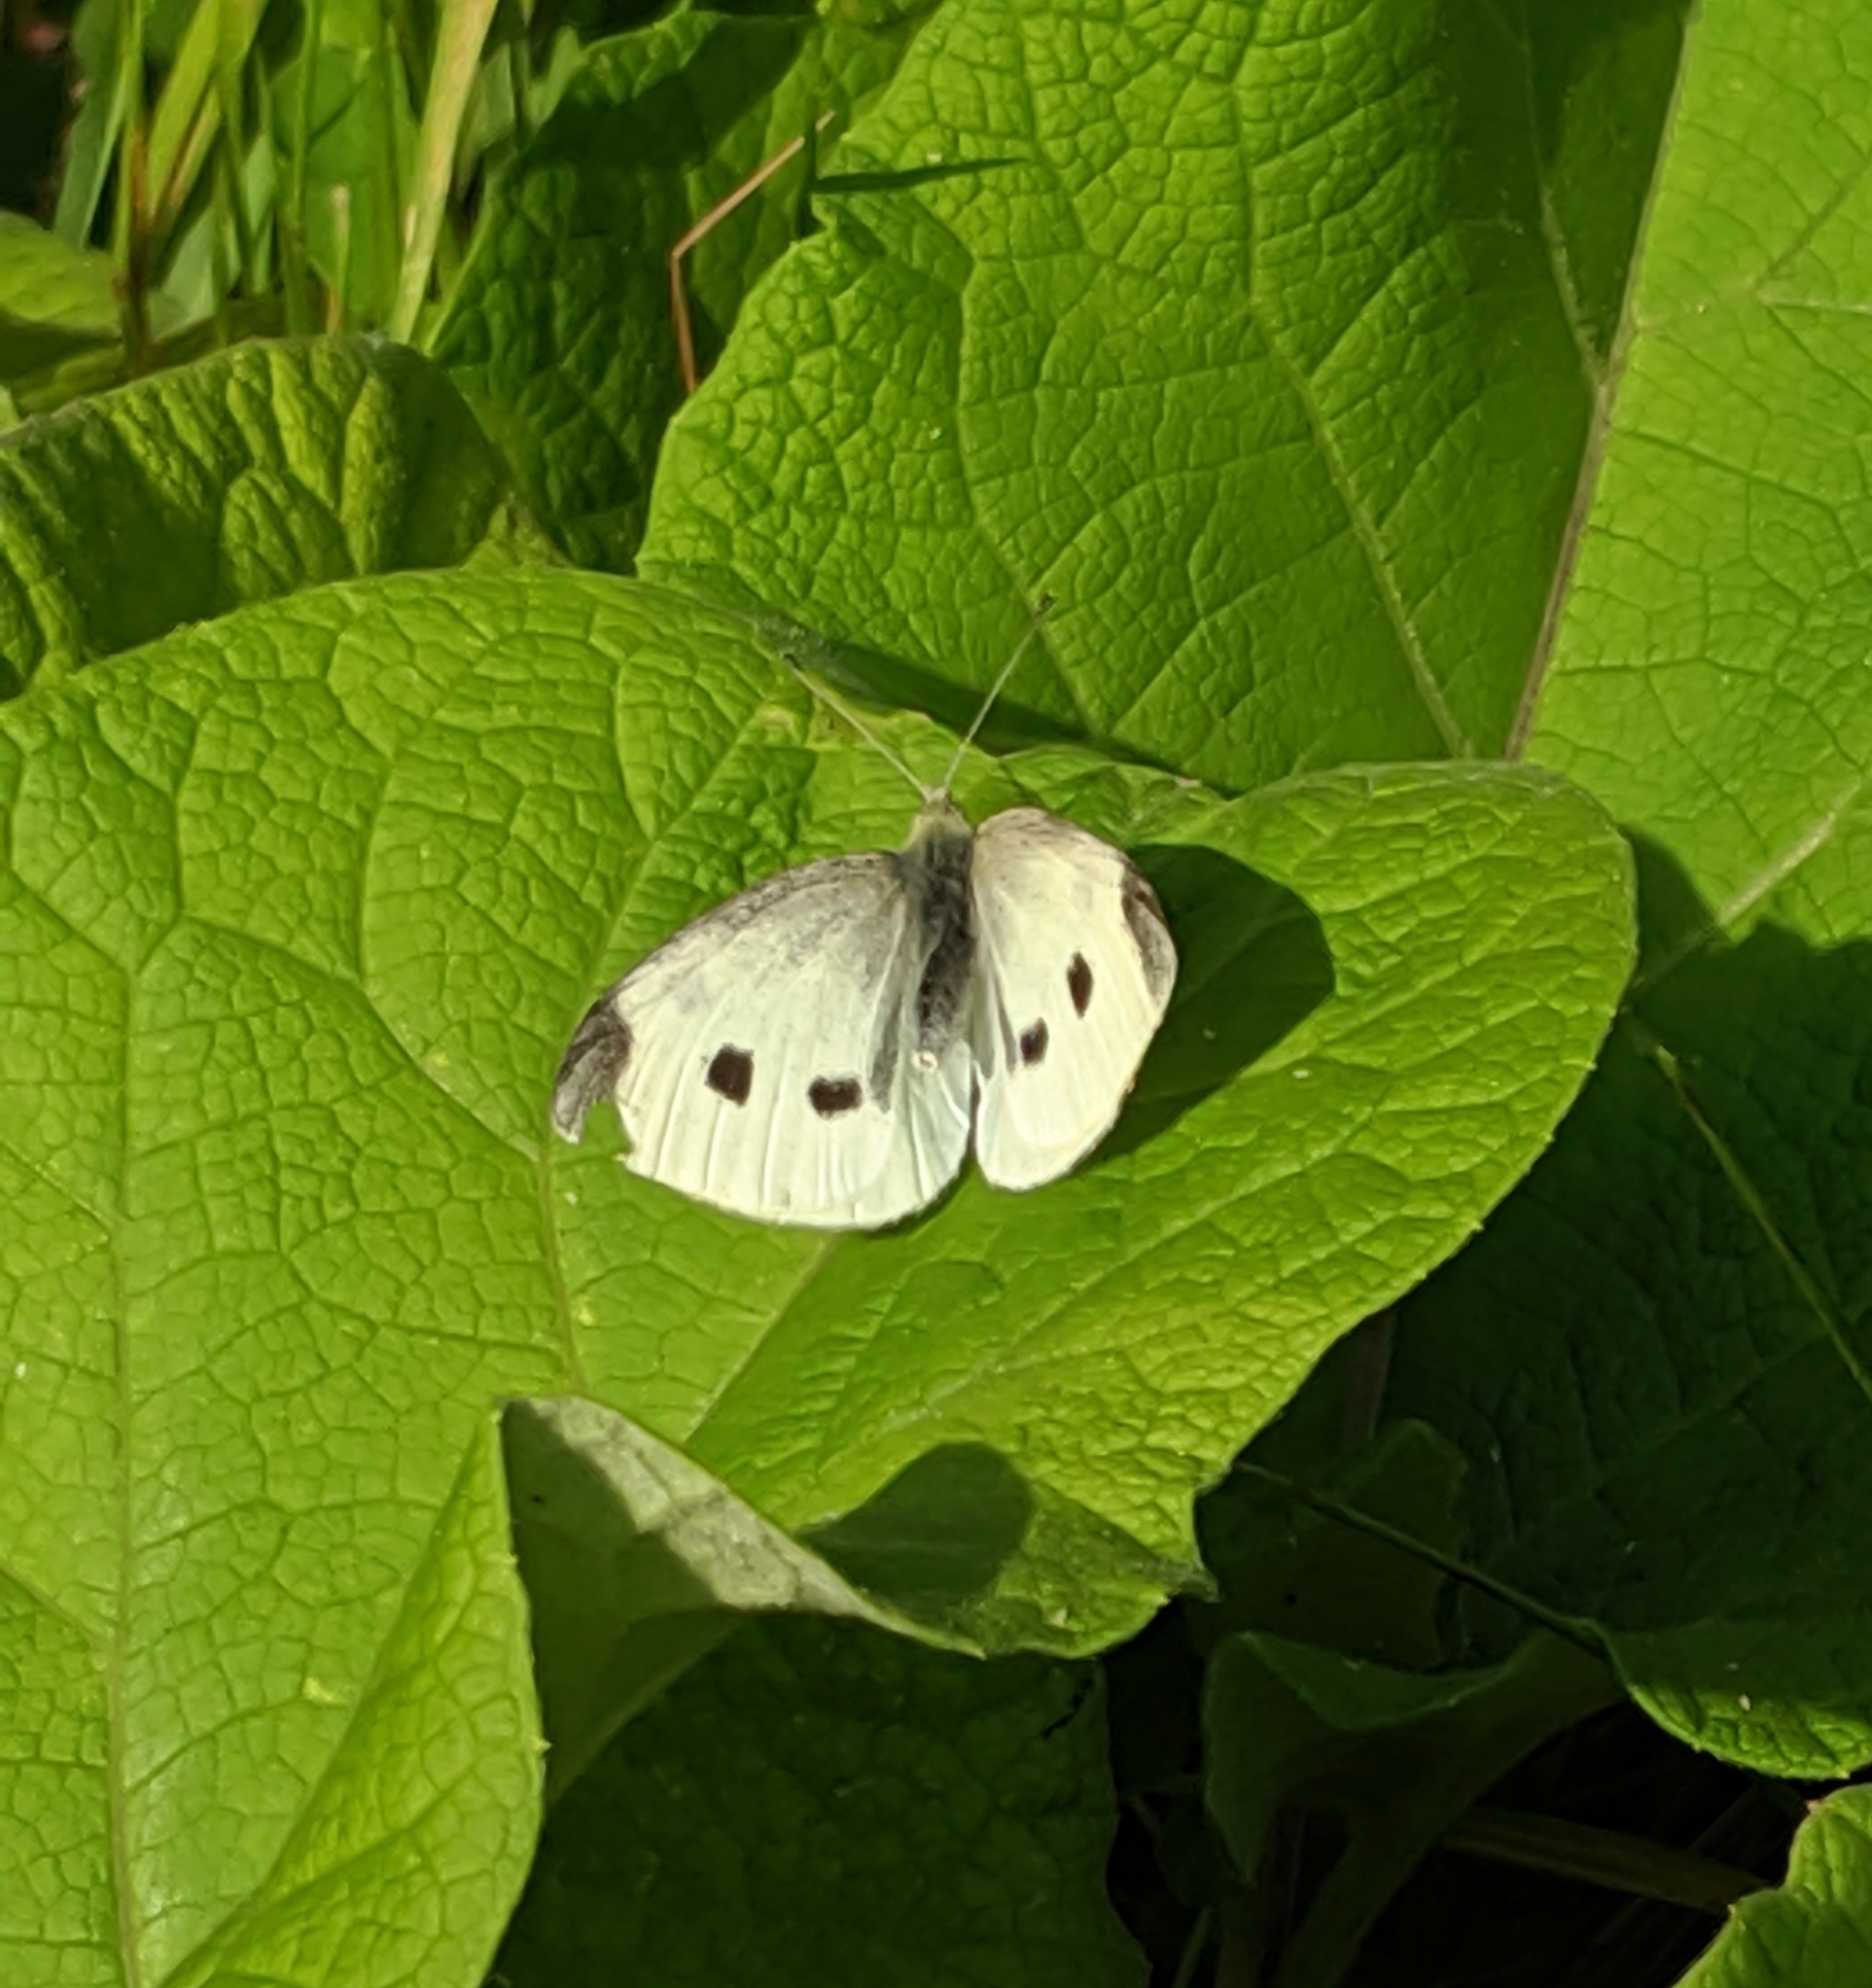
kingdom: Animalia
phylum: Arthropoda
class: Insecta
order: Lepidoptera
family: Pieridae
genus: Pieris
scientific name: Pieris rapae
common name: Small white
